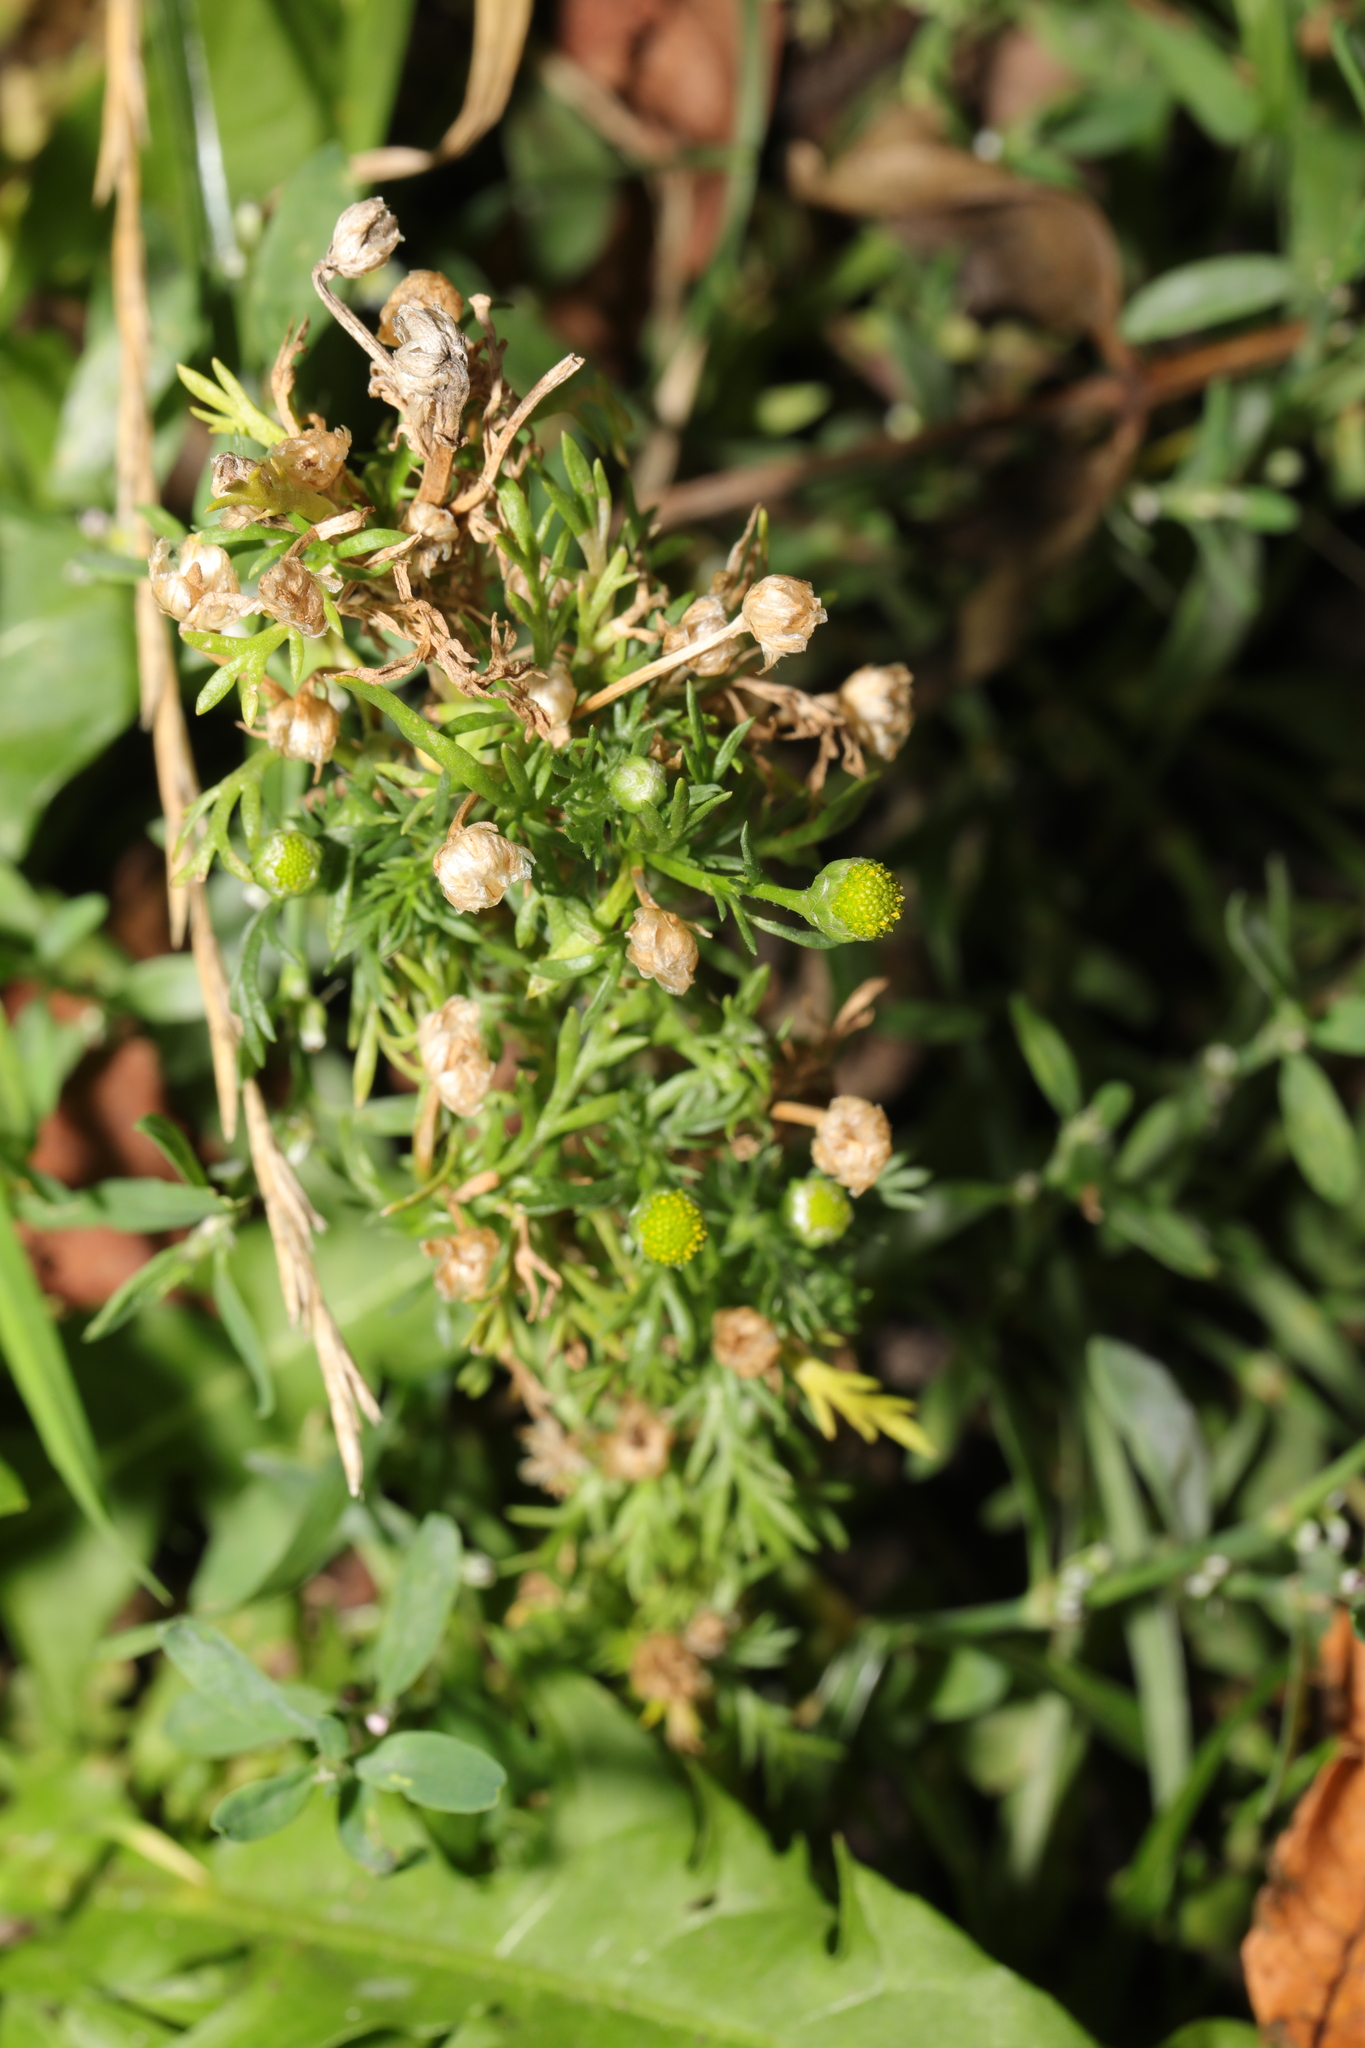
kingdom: Plantae
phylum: Tracheophyta
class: Magnoliopsida
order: Asterales
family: Asteraceae
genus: Matricaria
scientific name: Matricaria discoidea
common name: Disc mayweed
